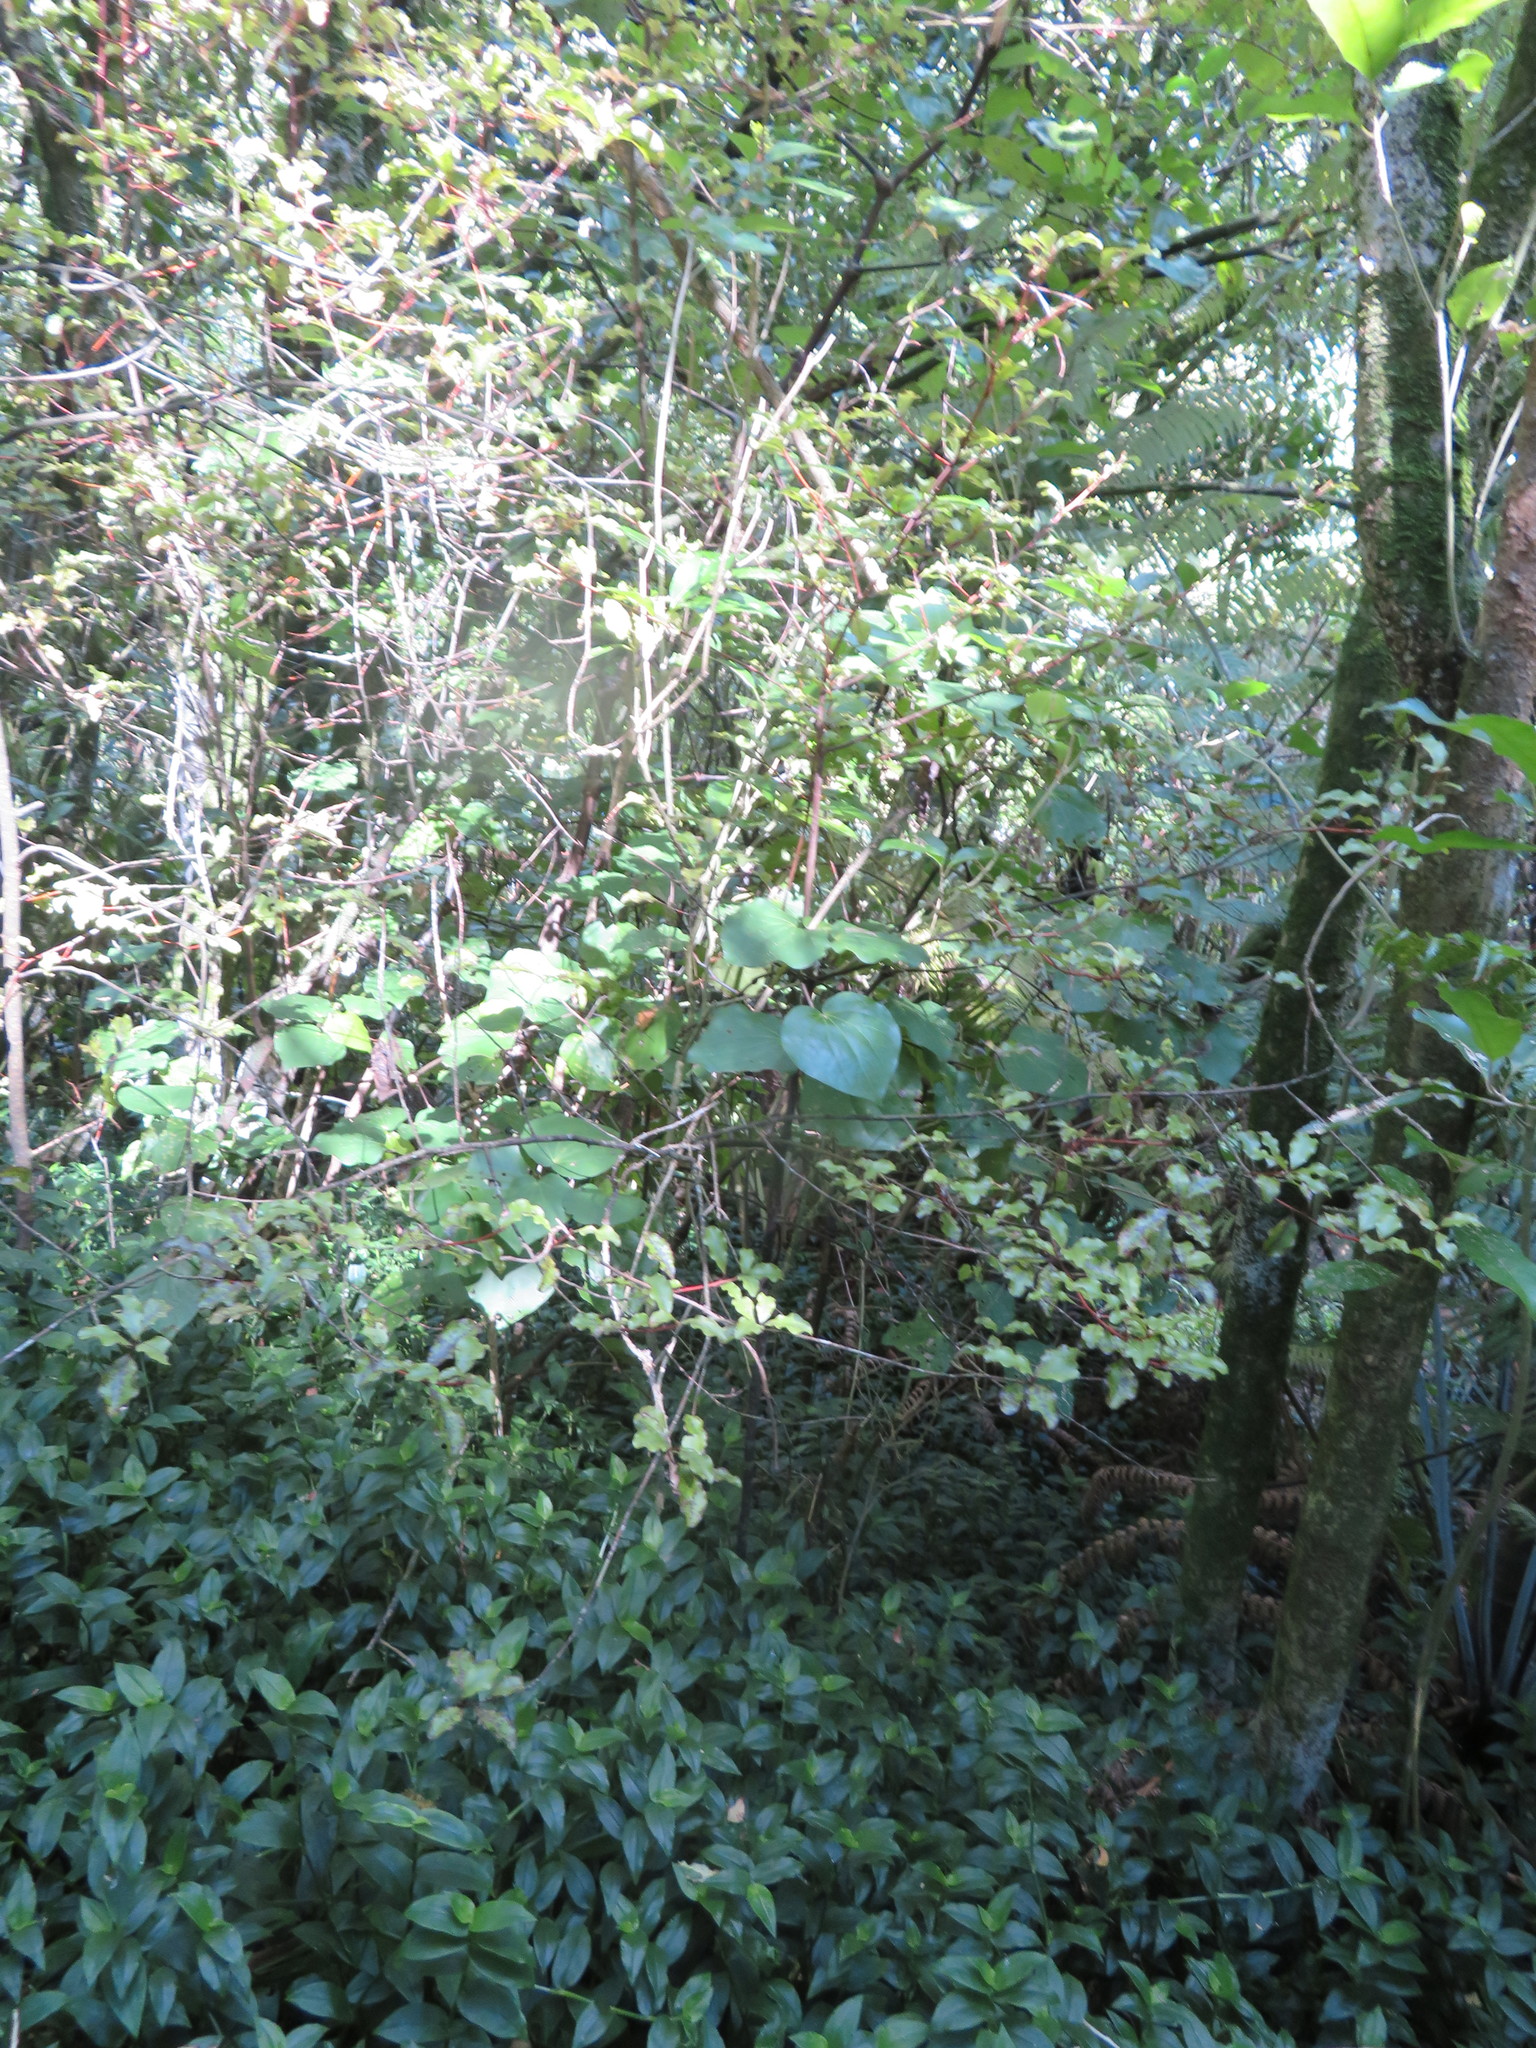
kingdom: Plantae
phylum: Tracheophyta
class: Magnoliopsida
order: Piperales
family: Piperaceae
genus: Macropiper
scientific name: Macropiper excelsum
